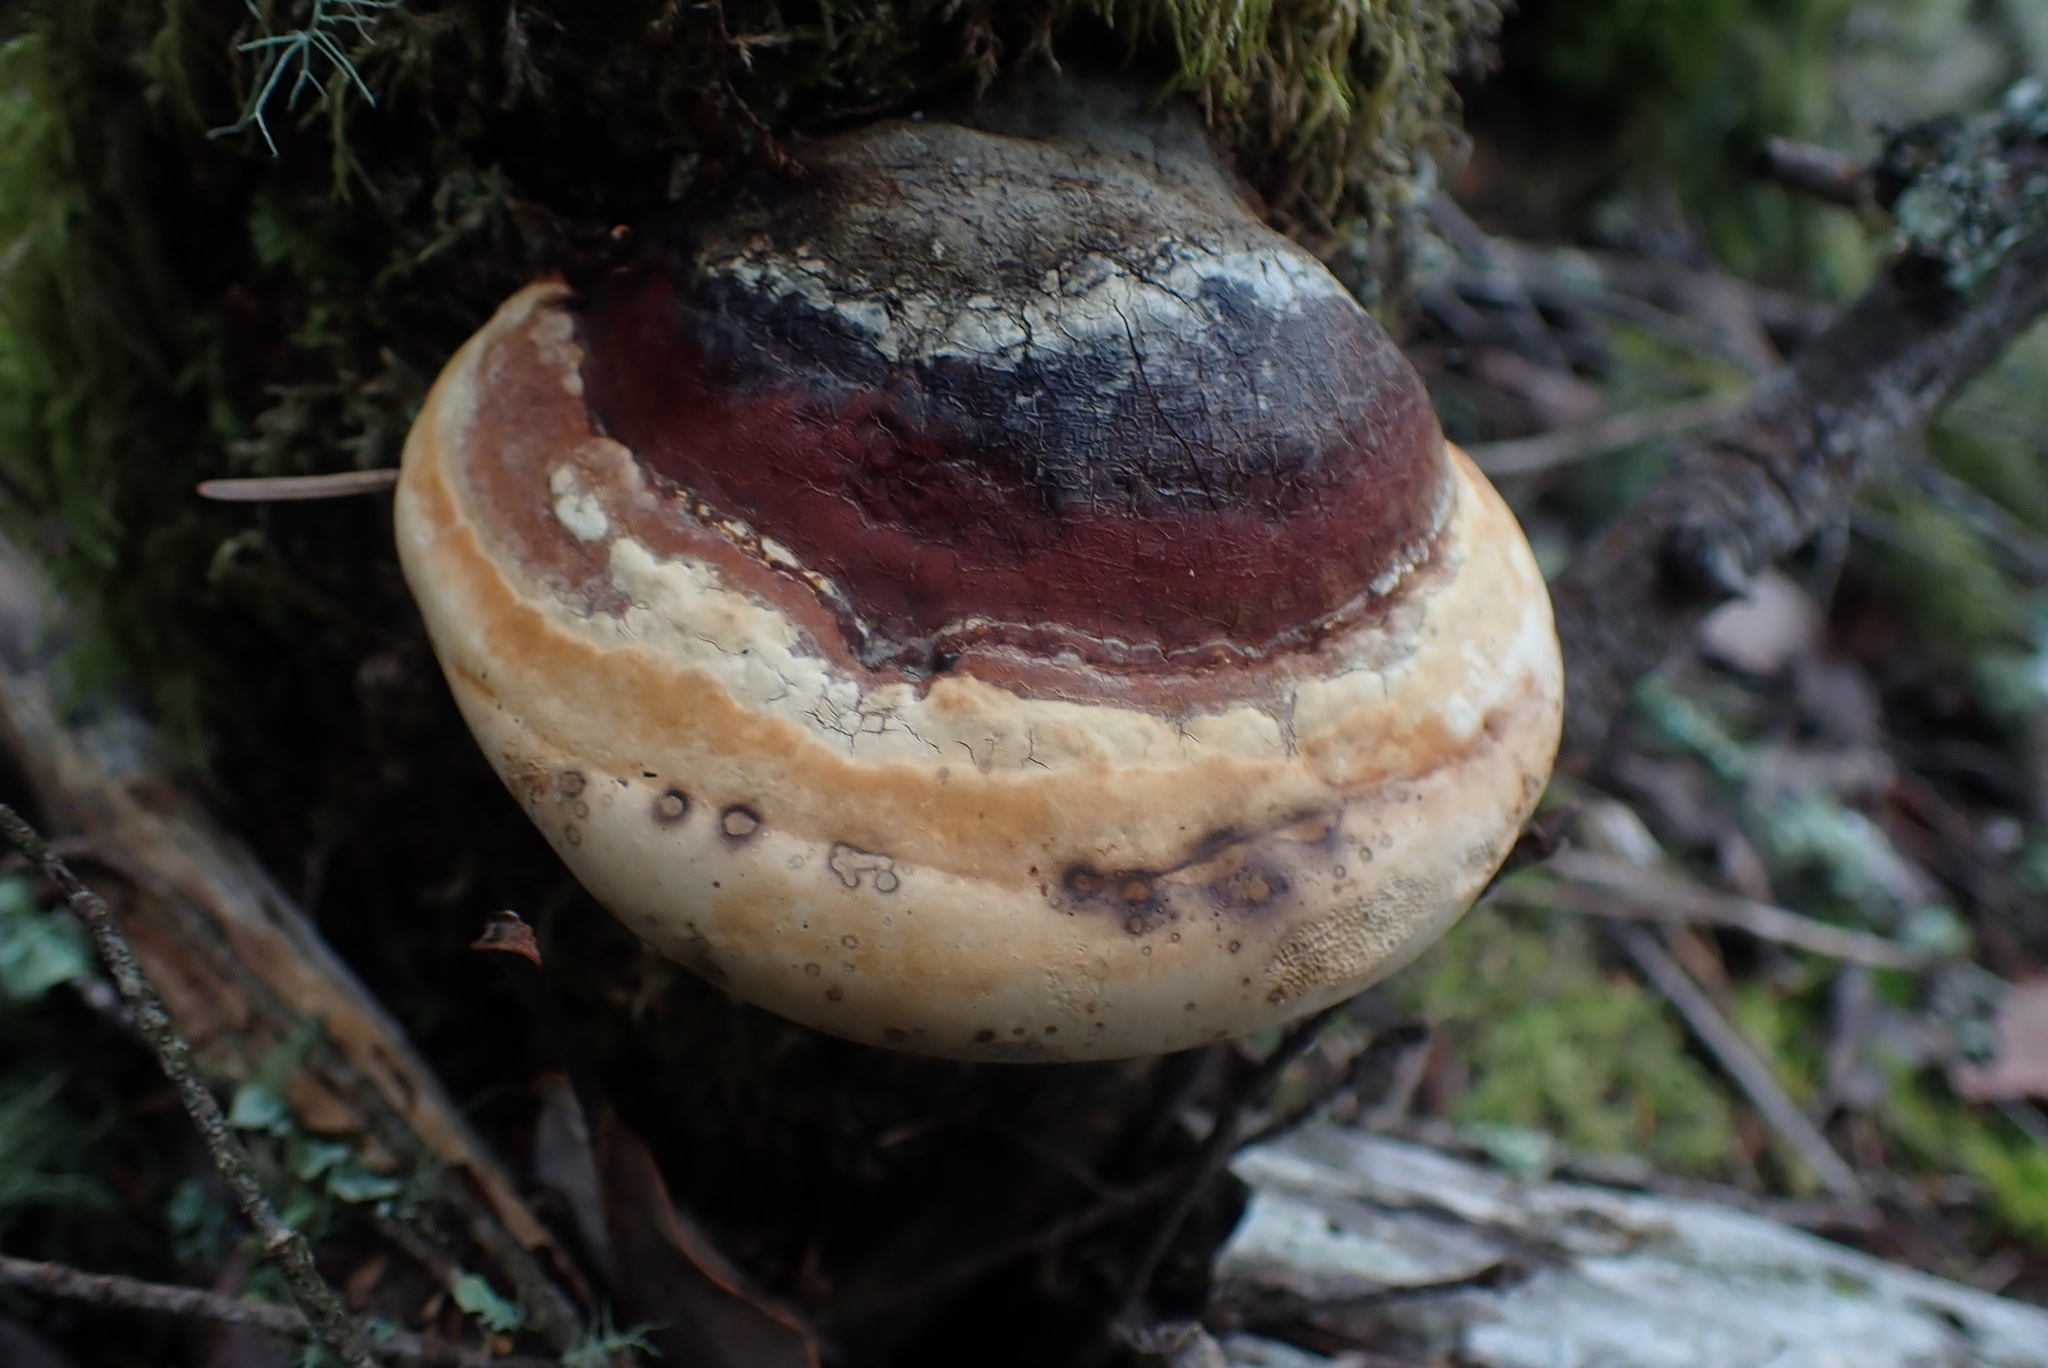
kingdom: Fungi
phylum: Basidiomycota
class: Agaricomycetes
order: Polyporales
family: Fomitopsidaceae
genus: Fomitopsis
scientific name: Fomitopsis mounceae
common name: Northern red belt
